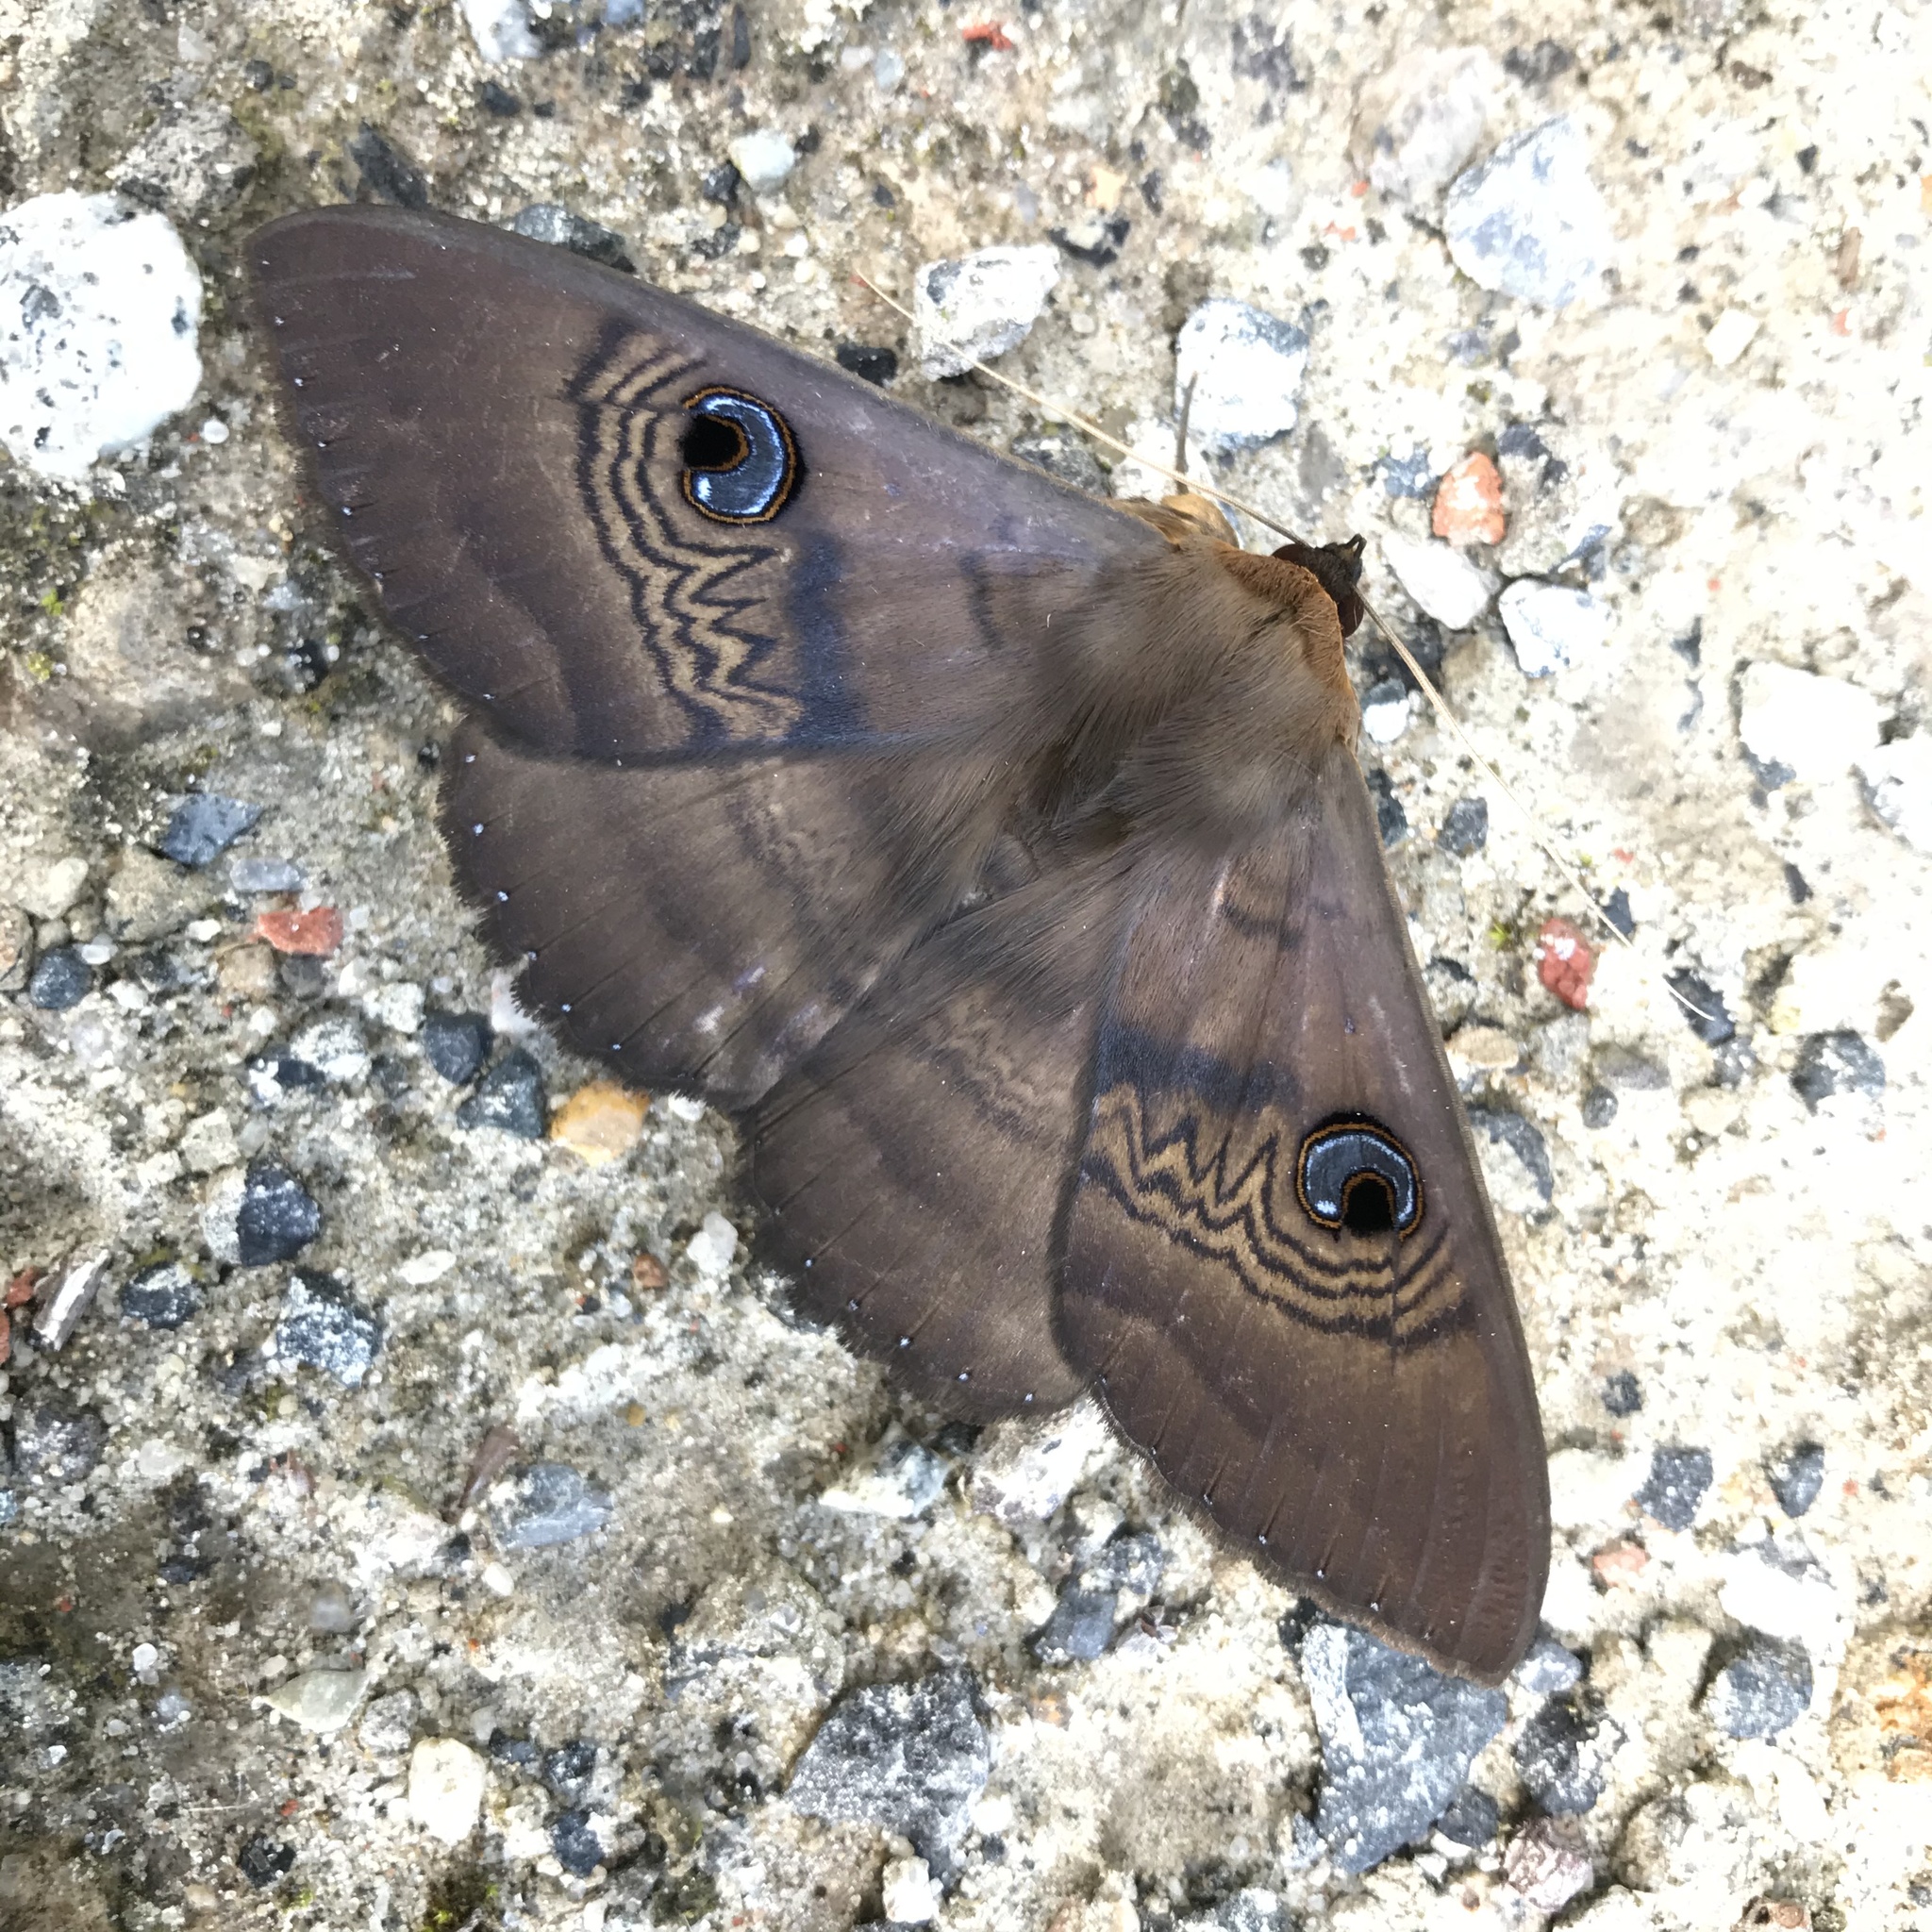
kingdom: Animalia
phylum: Arthropoda
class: Insecta
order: Lepidoptera
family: Erebidae
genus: Dasypodia
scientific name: Dasypodia selenophora
